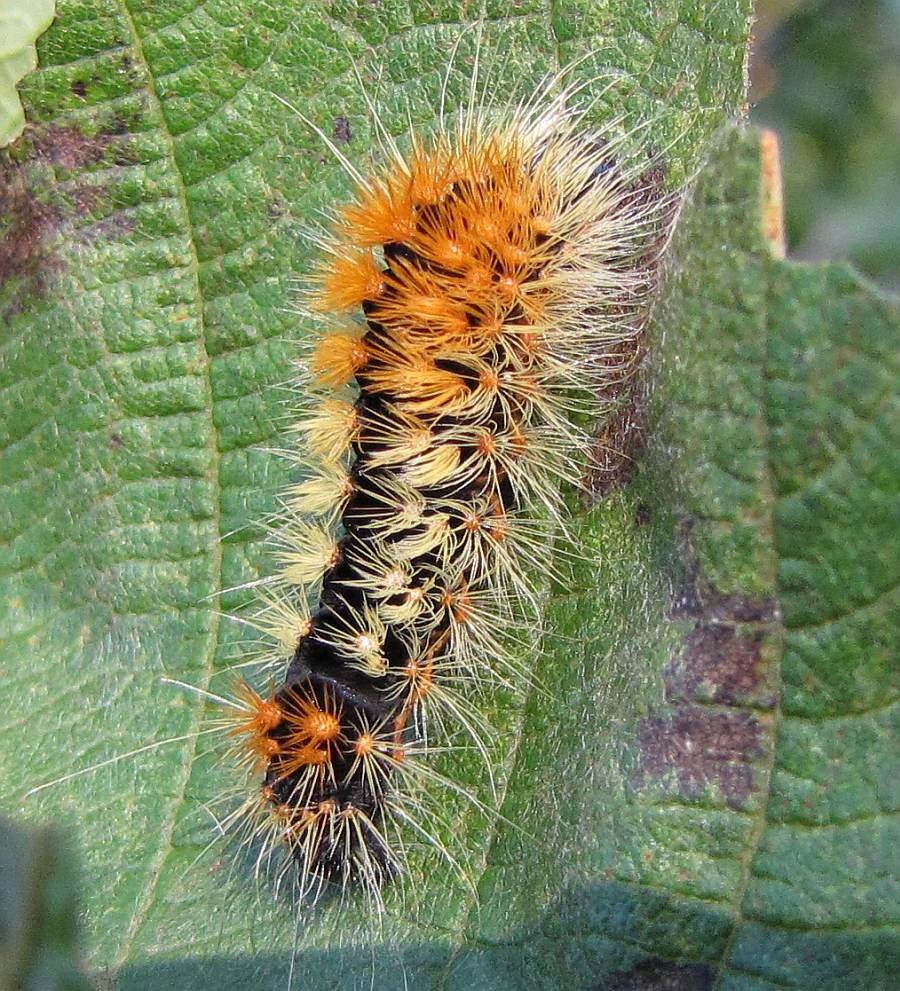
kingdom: Animalia
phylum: Arthropoda
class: Insecta
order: Lepidoptera
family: Noctuidae
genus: Acronicta
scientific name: Acronicta impressa
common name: Impressed dagger
